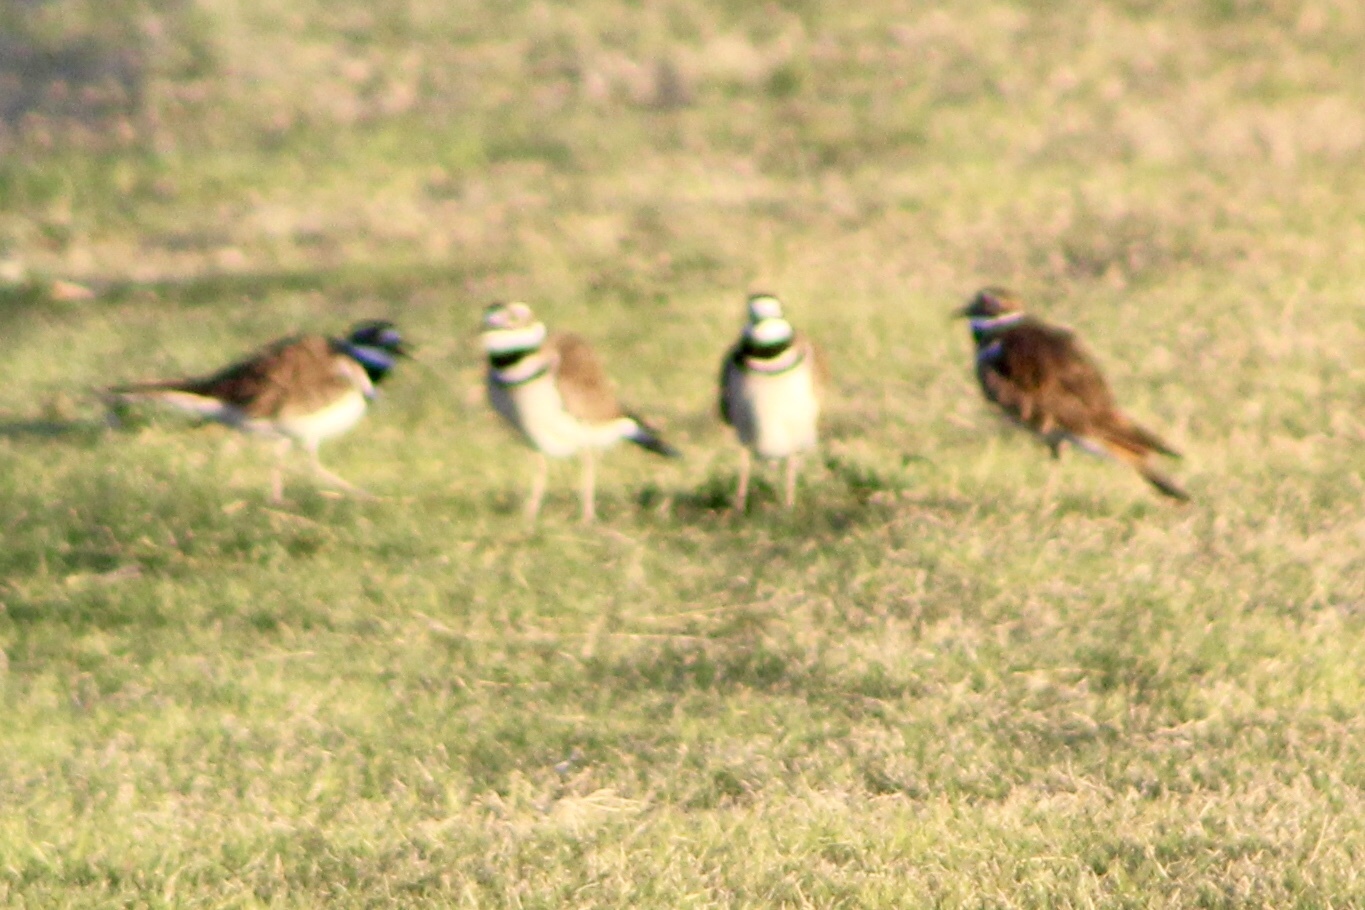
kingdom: Animalia
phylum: Chordata
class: Aves
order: Charadriiformes
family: Charadriidae
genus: Charadrius
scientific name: Charadrius vociferus
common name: Killdeer
